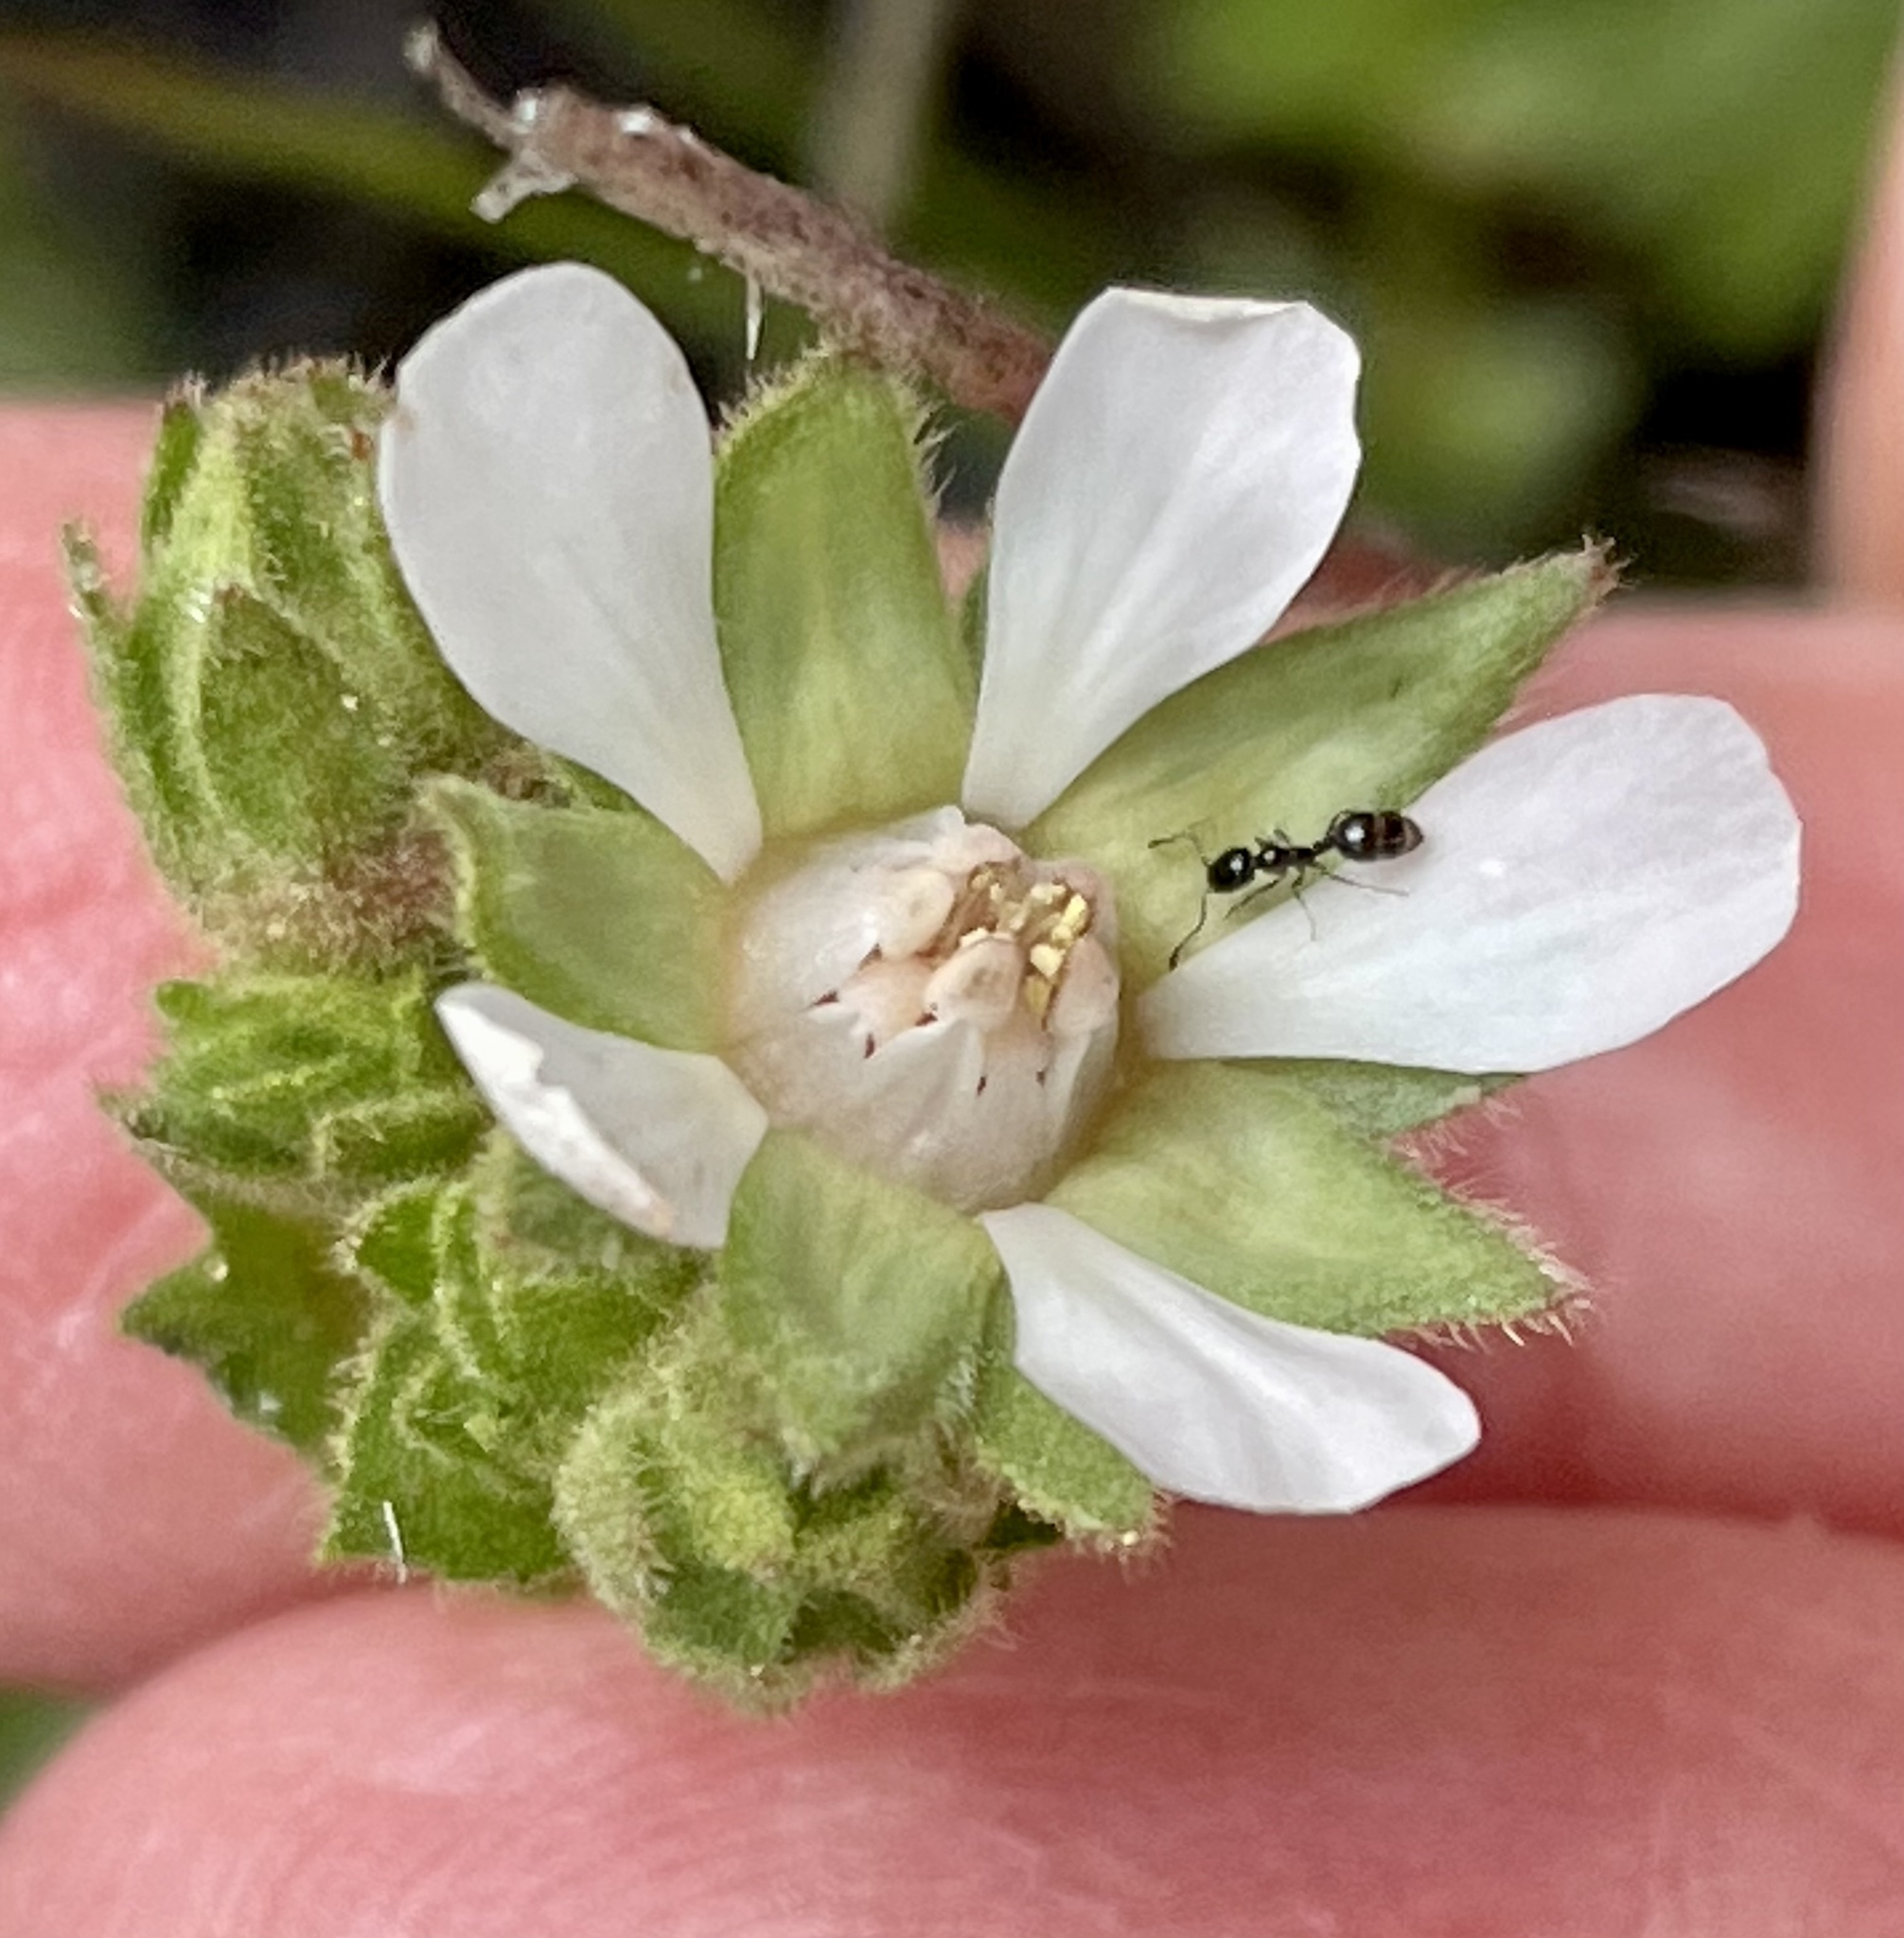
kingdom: Animalia
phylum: Arthropoda
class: Insecta
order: Hymenoptera
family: Formicidae
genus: Monomorium
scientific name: Monomorium ergatogyna
